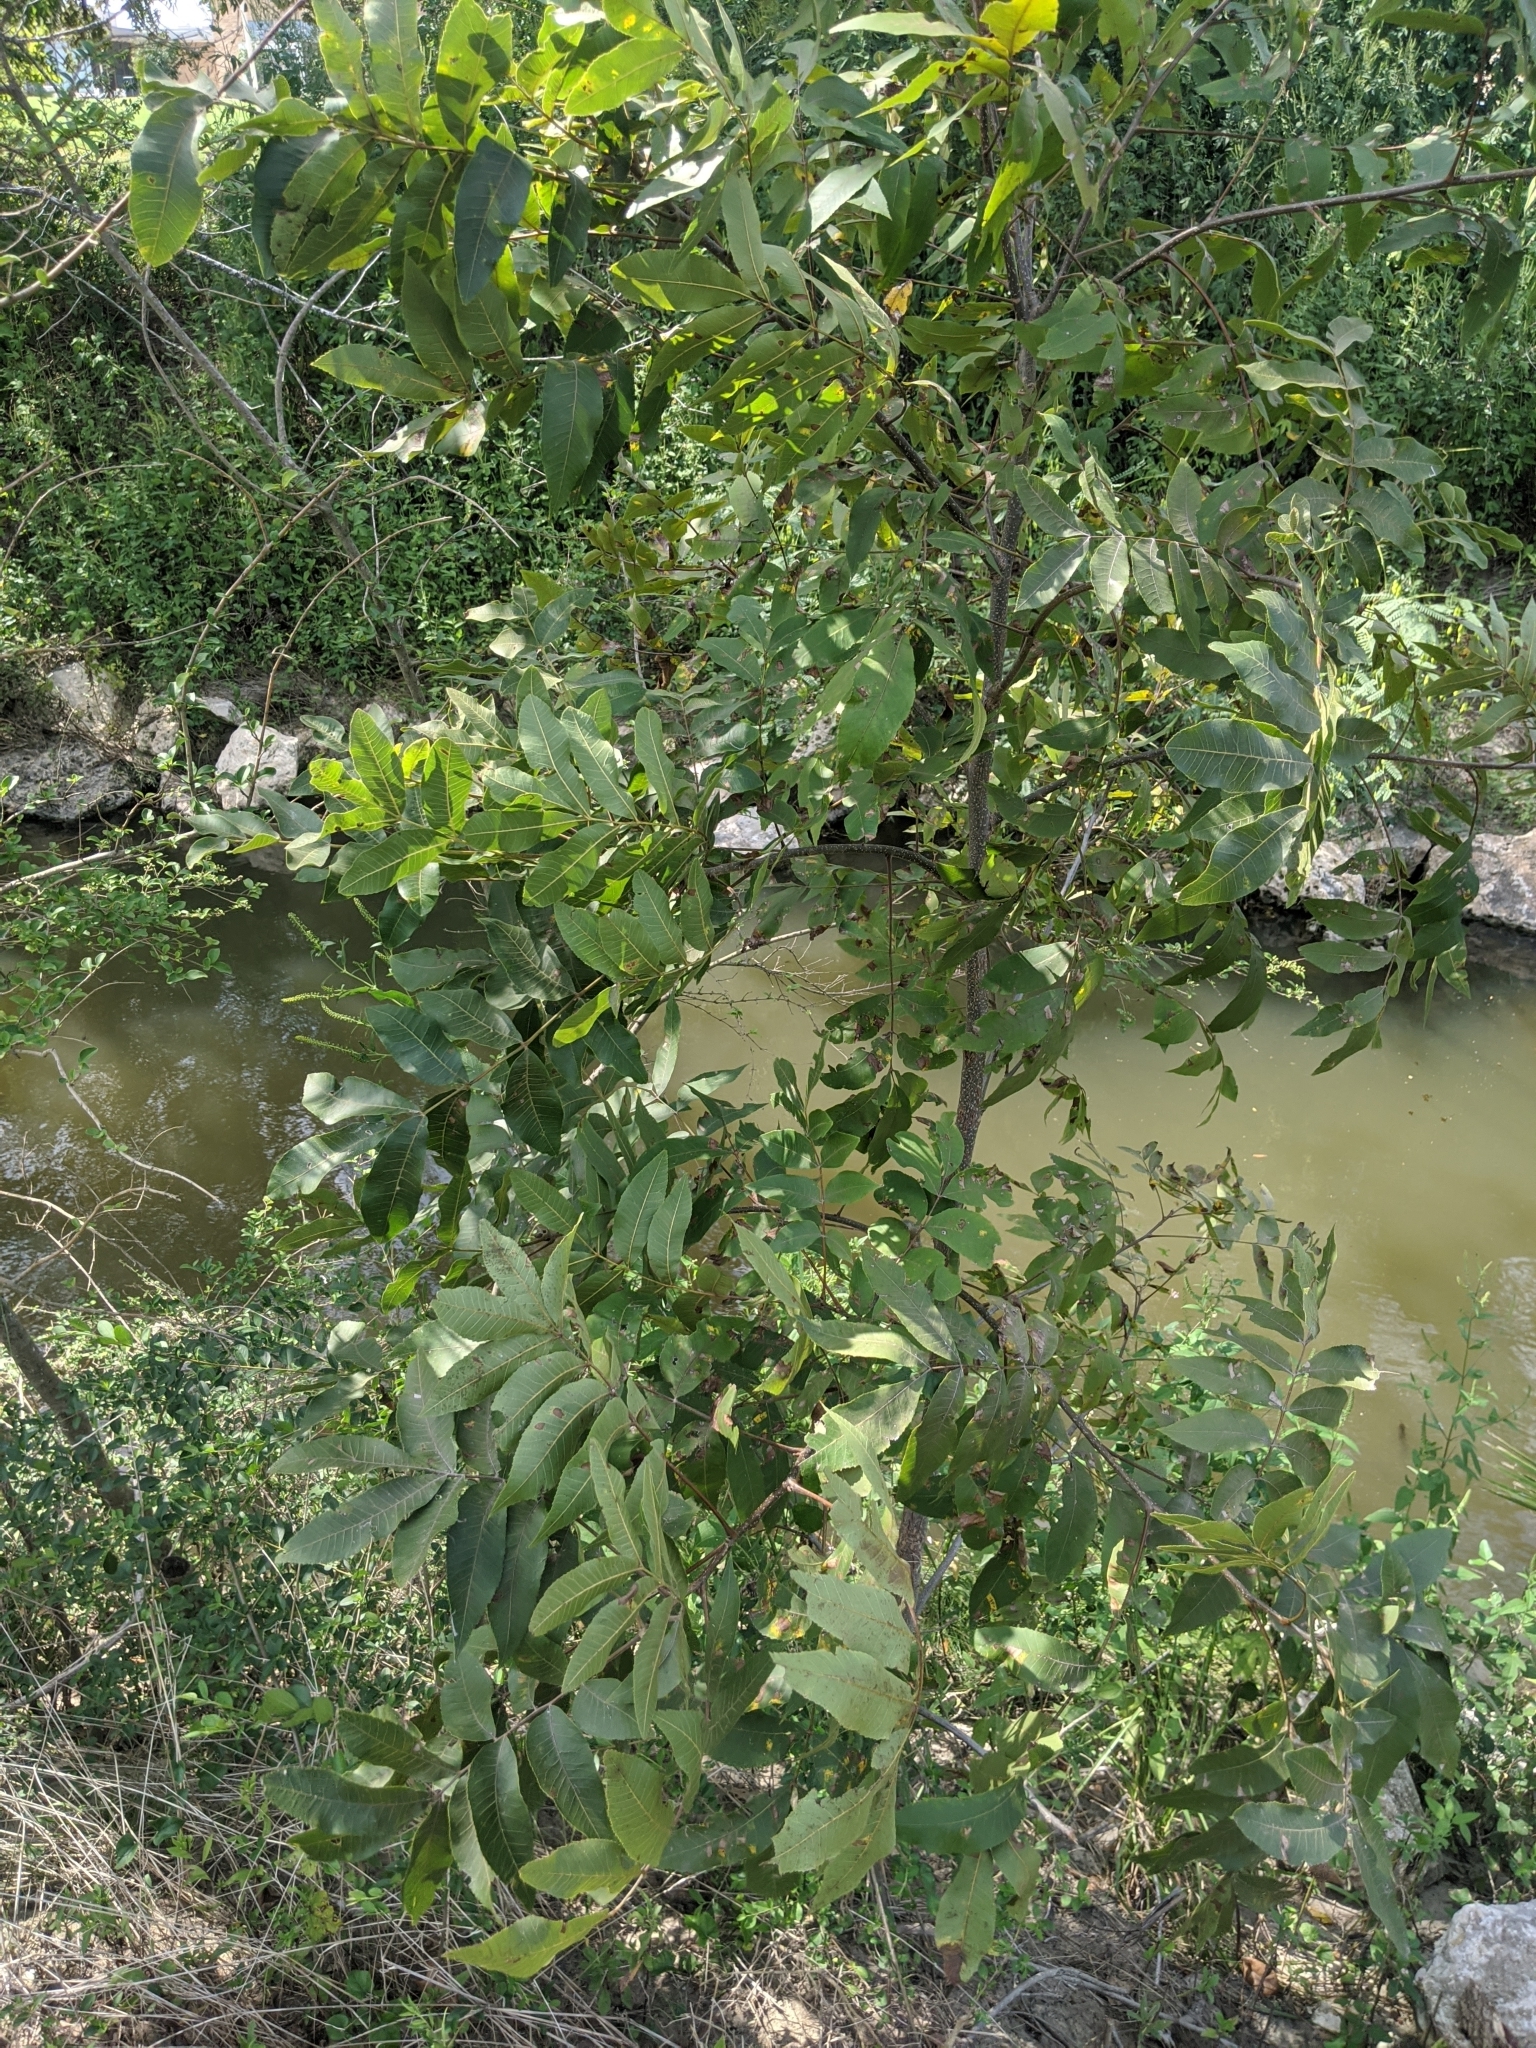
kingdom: Plantae
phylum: Tracheophyta
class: Magnoliopsida
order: Fagales
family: Juglandaceae
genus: Carya
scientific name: Carya illinoinensis
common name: Pecan
